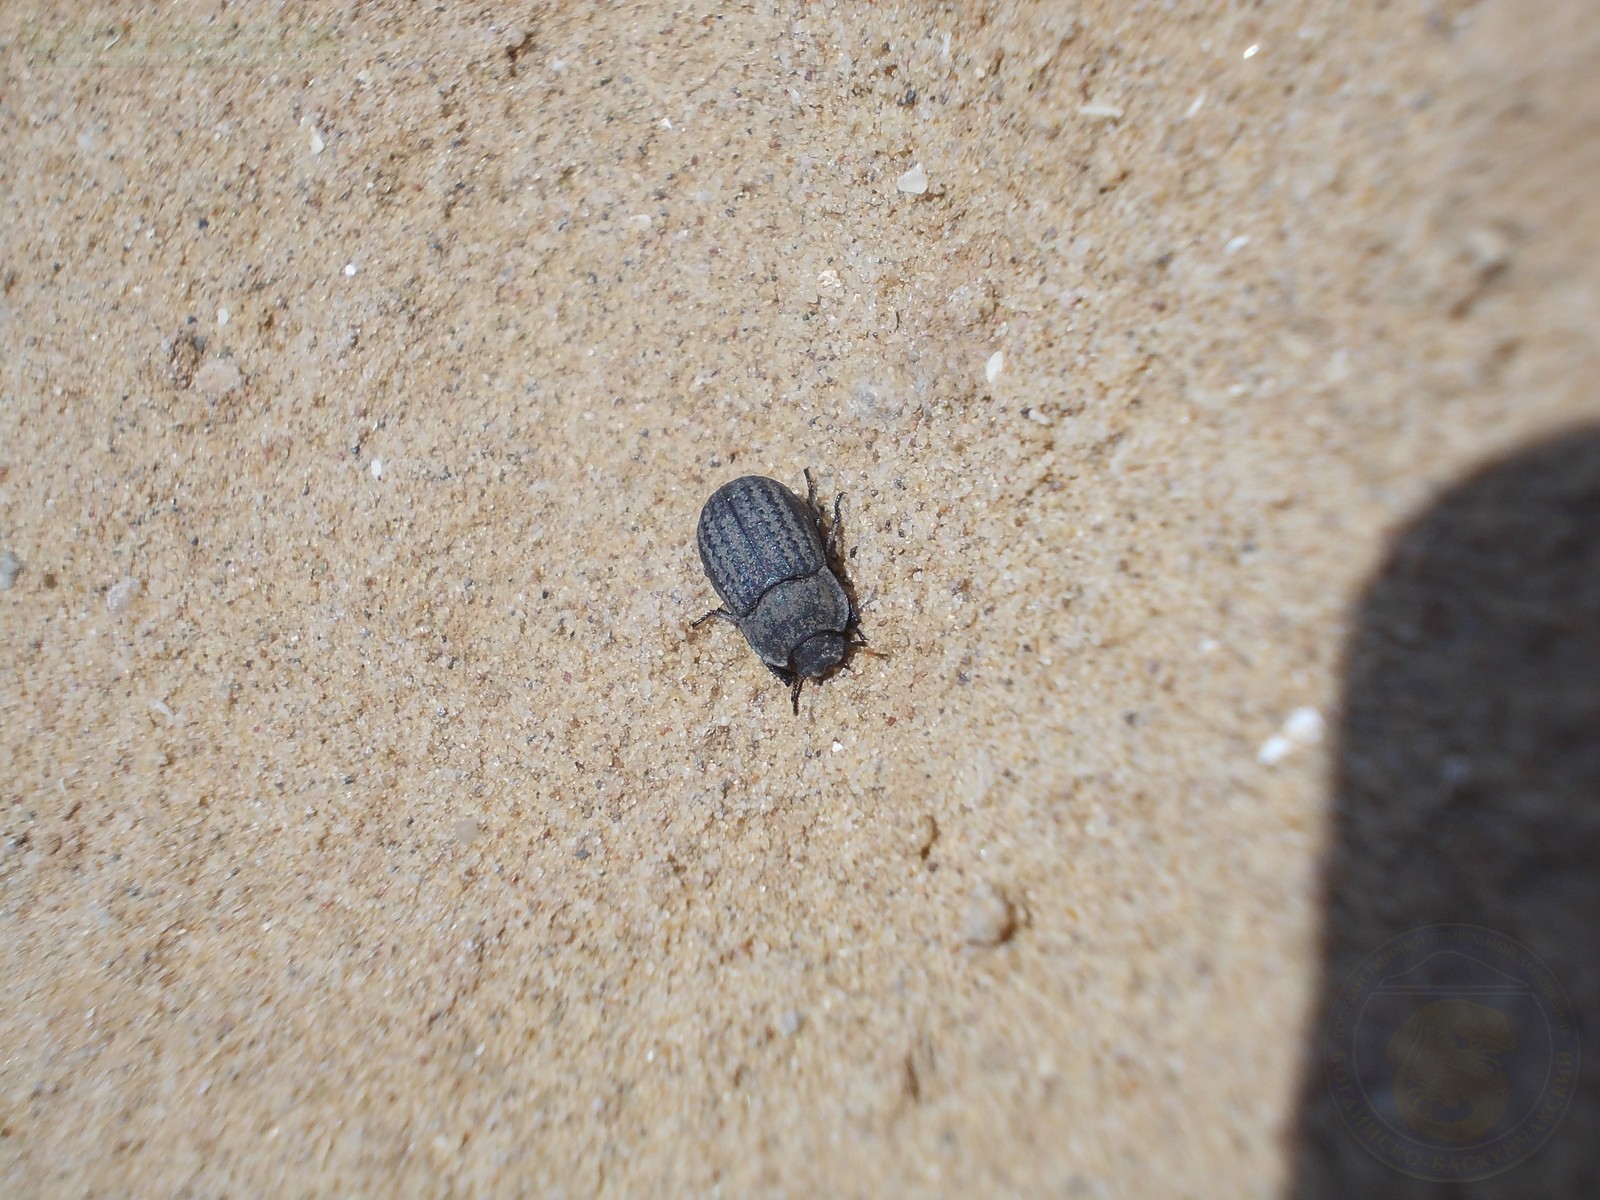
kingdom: Animalia
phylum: Arthropoda
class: Insecta
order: Coleoptera
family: Tenebrionidae
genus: Opatrum
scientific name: Opatrum sabulosum
